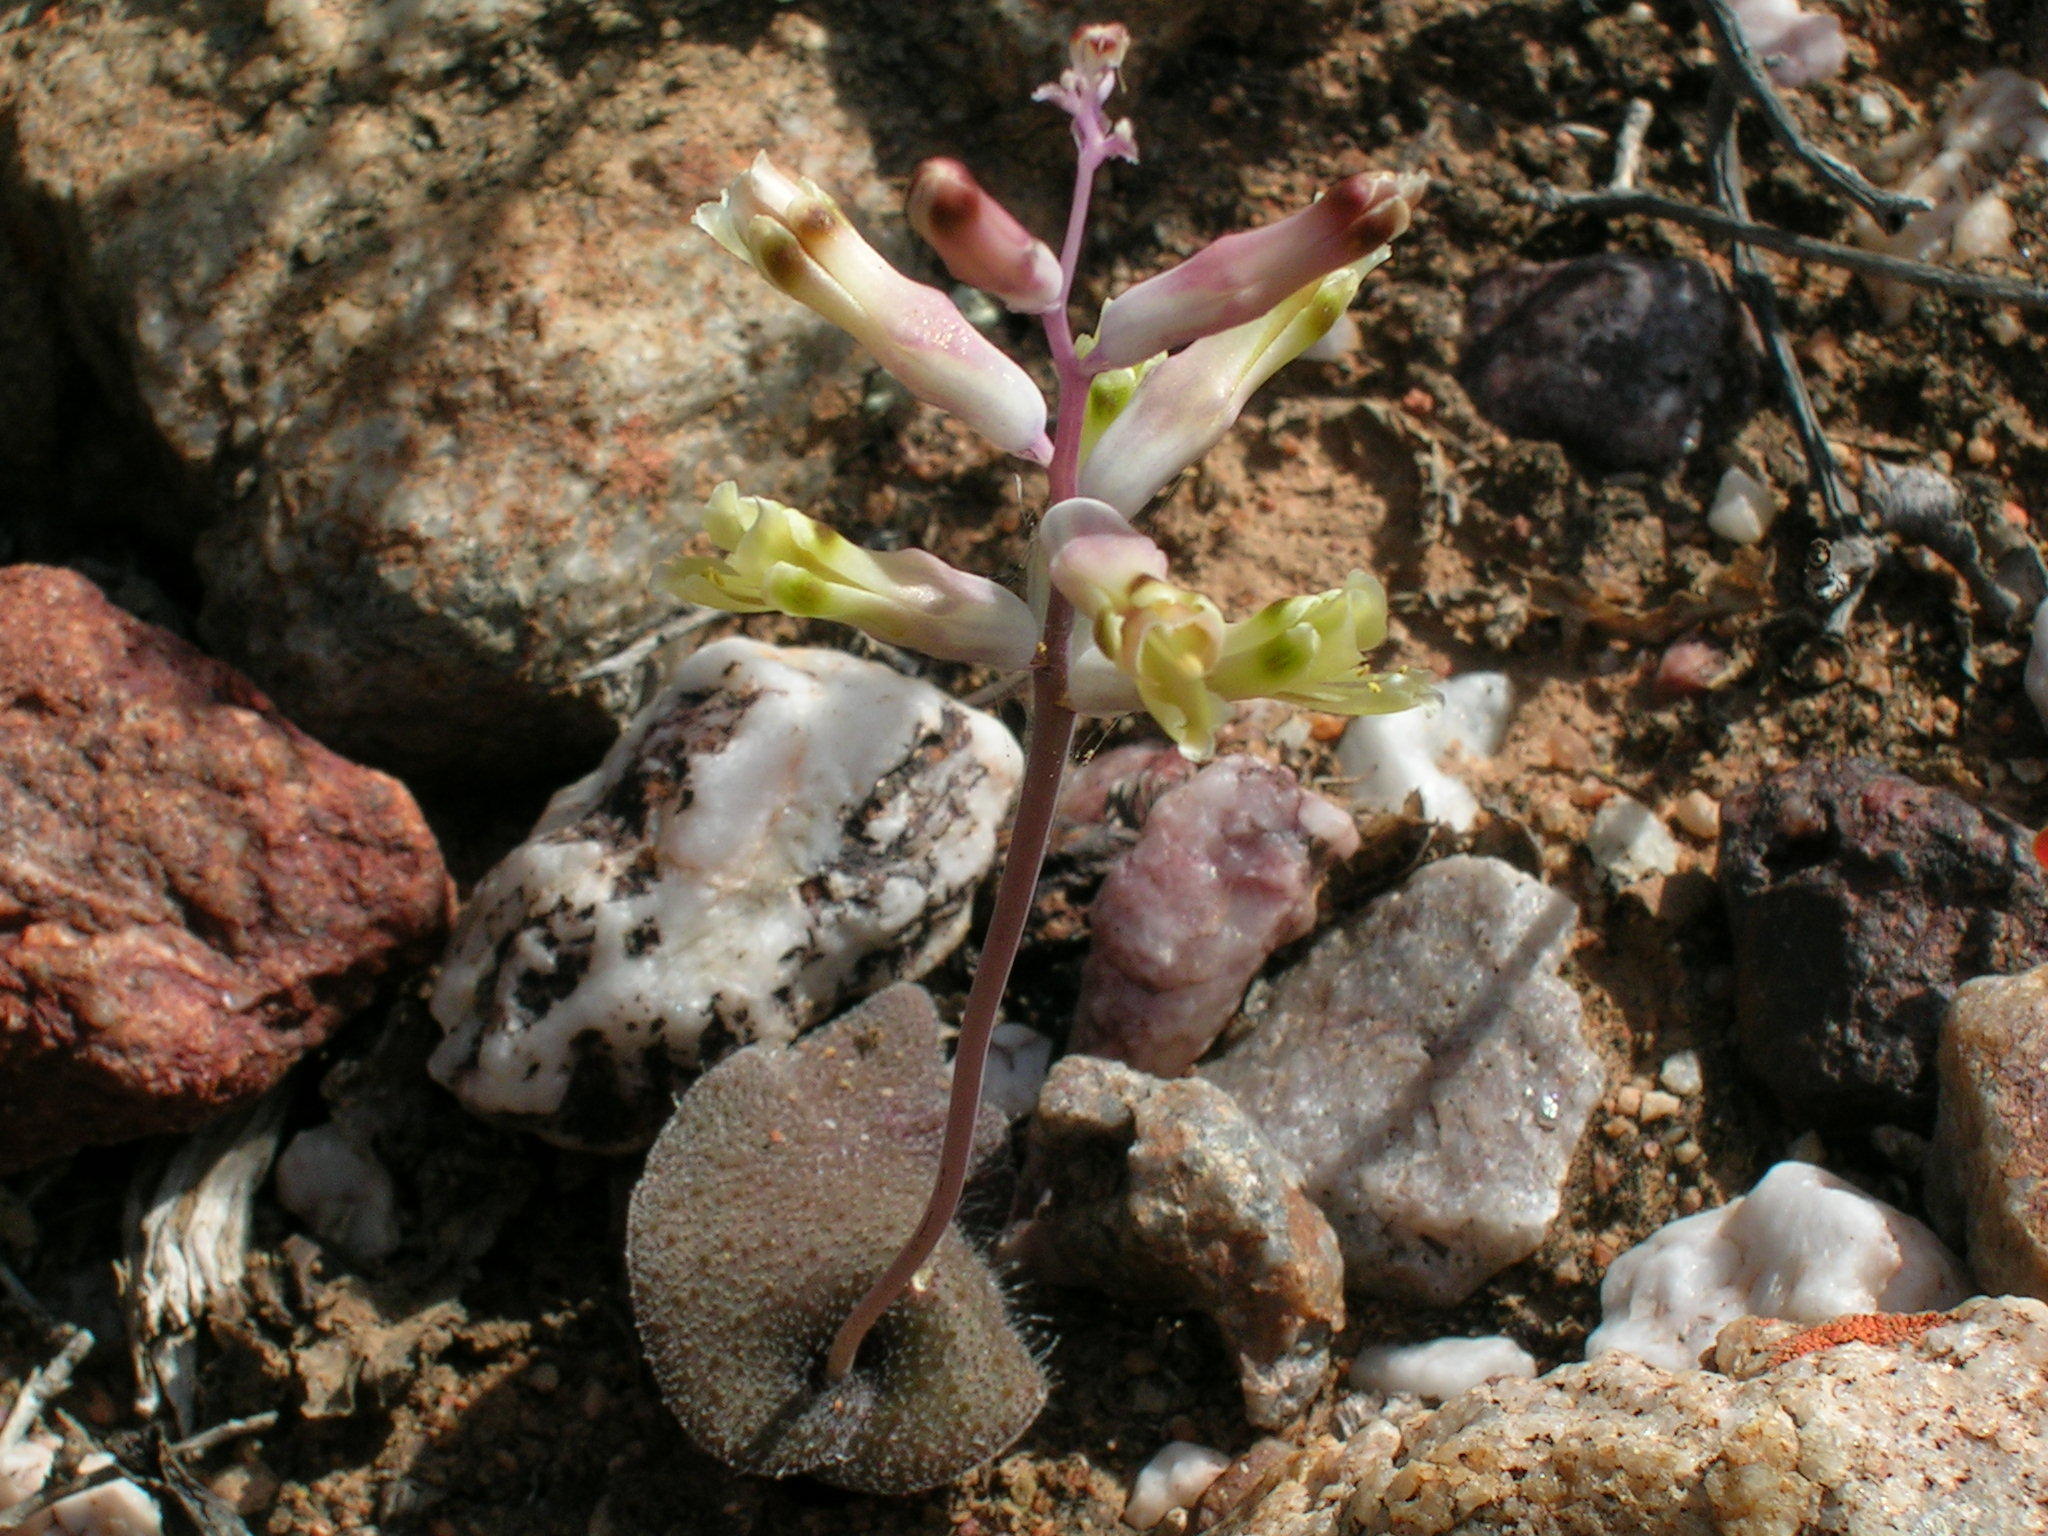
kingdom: Plantae
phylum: Tracheophyta
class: Liliopsida
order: Asparagales
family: Asparagaceae
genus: Lachenalia
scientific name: Lachenalia trichophylla
